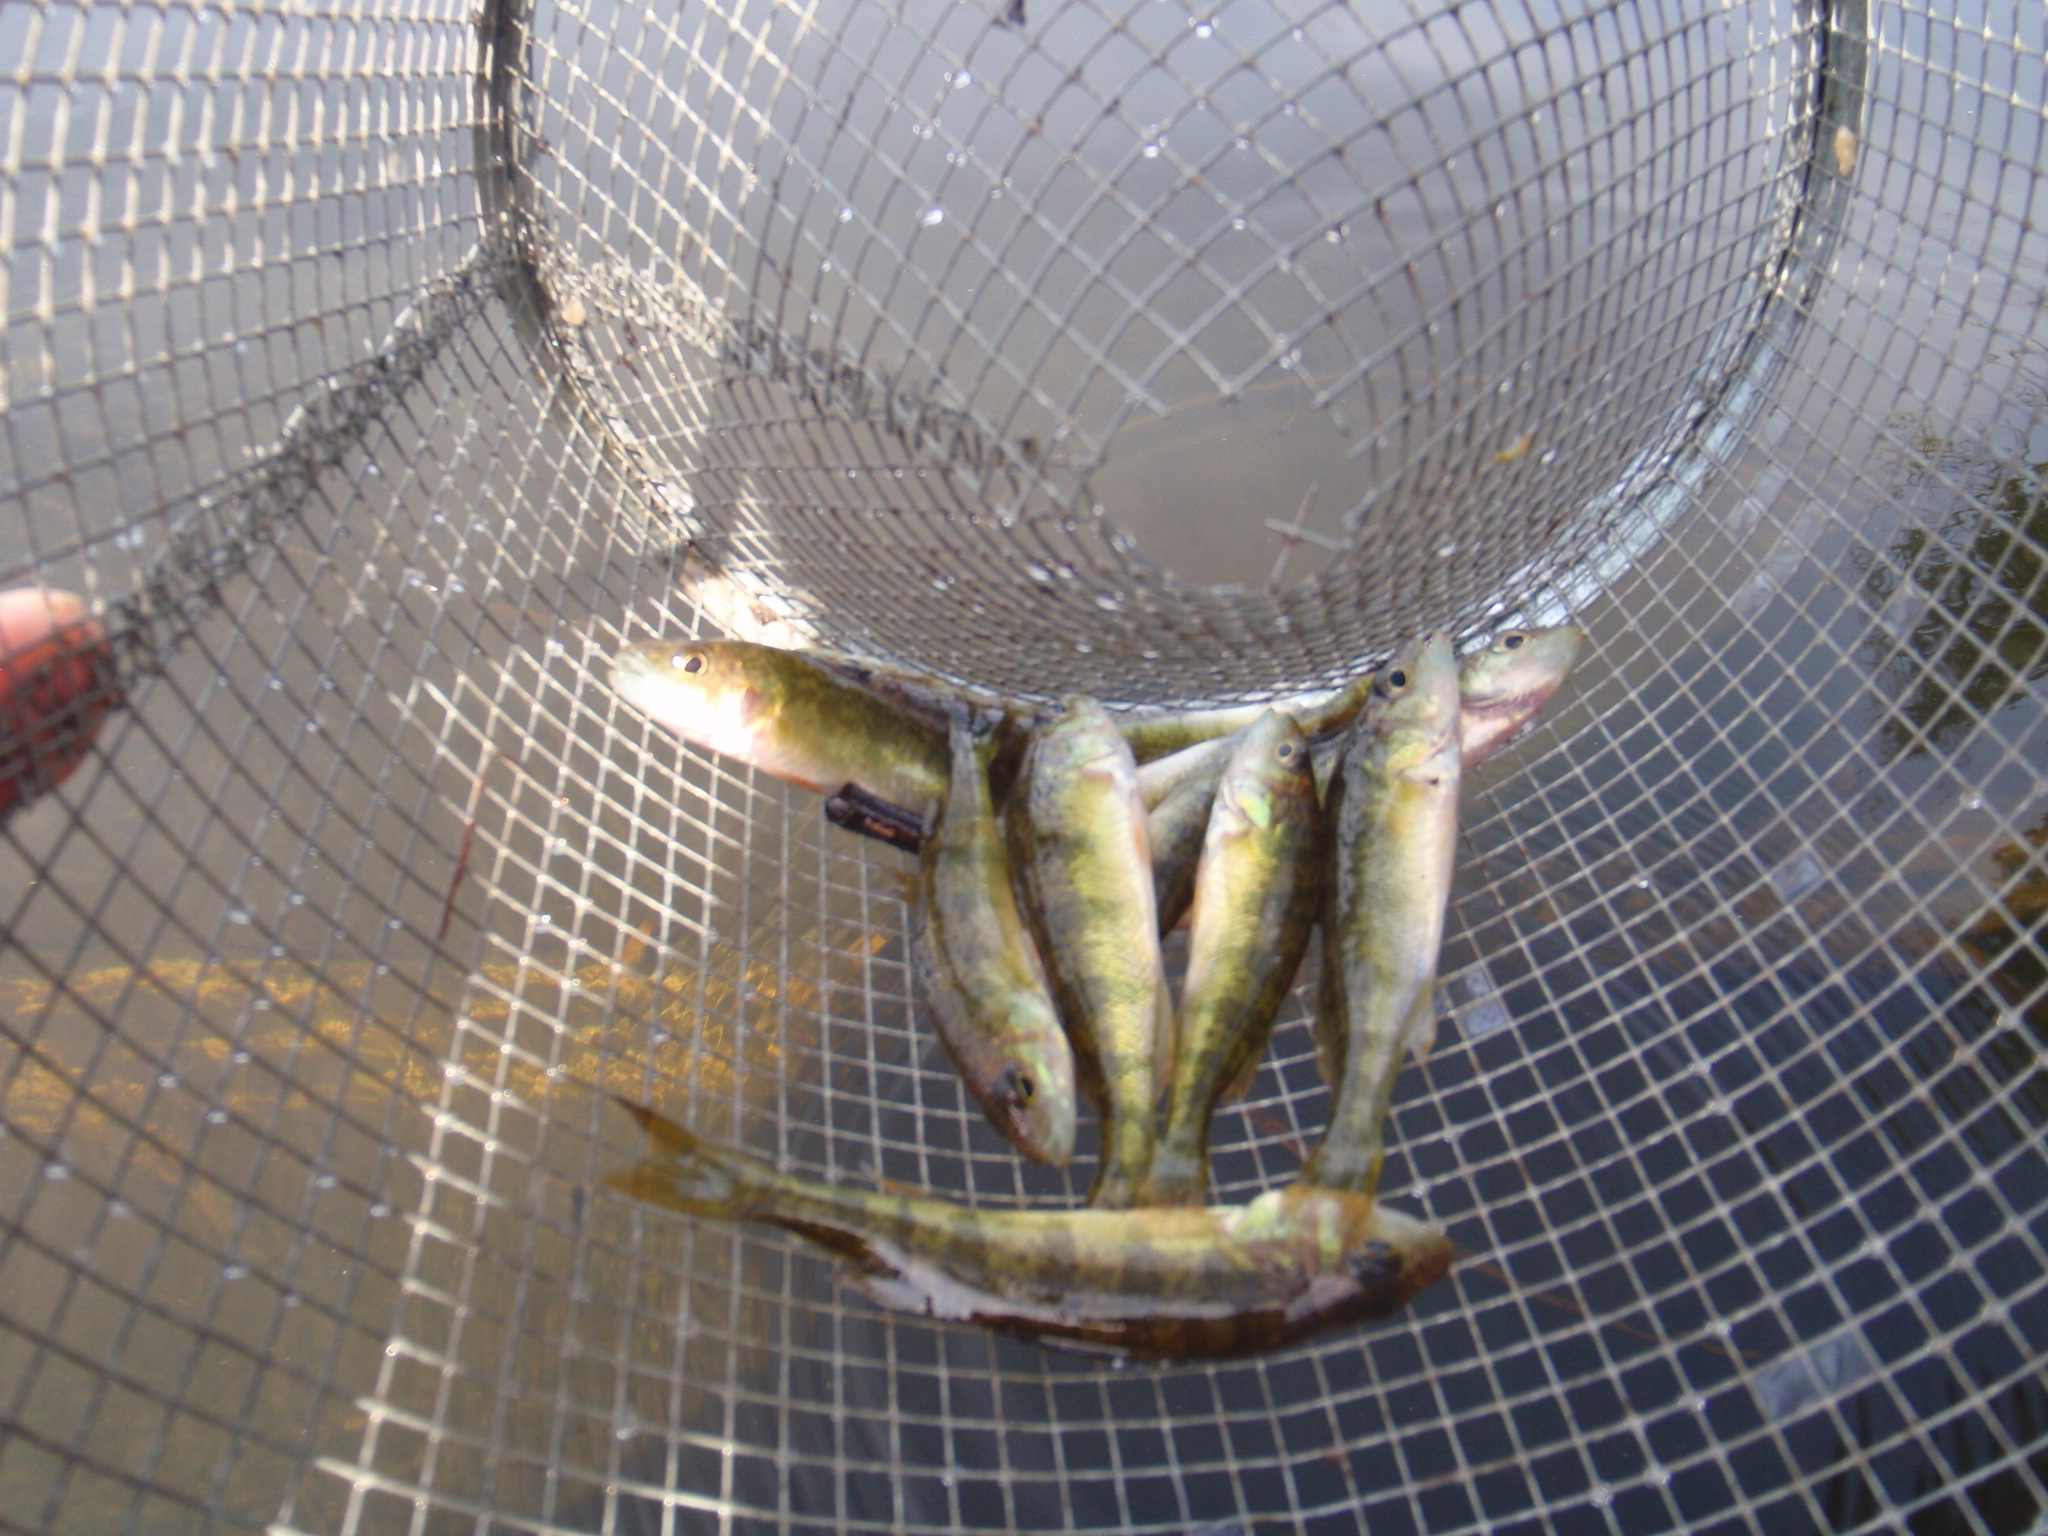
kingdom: Animalia
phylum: Chordata
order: Perciformes
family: Percidae
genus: Perca
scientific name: Perca flavescens
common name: Yellow perch
